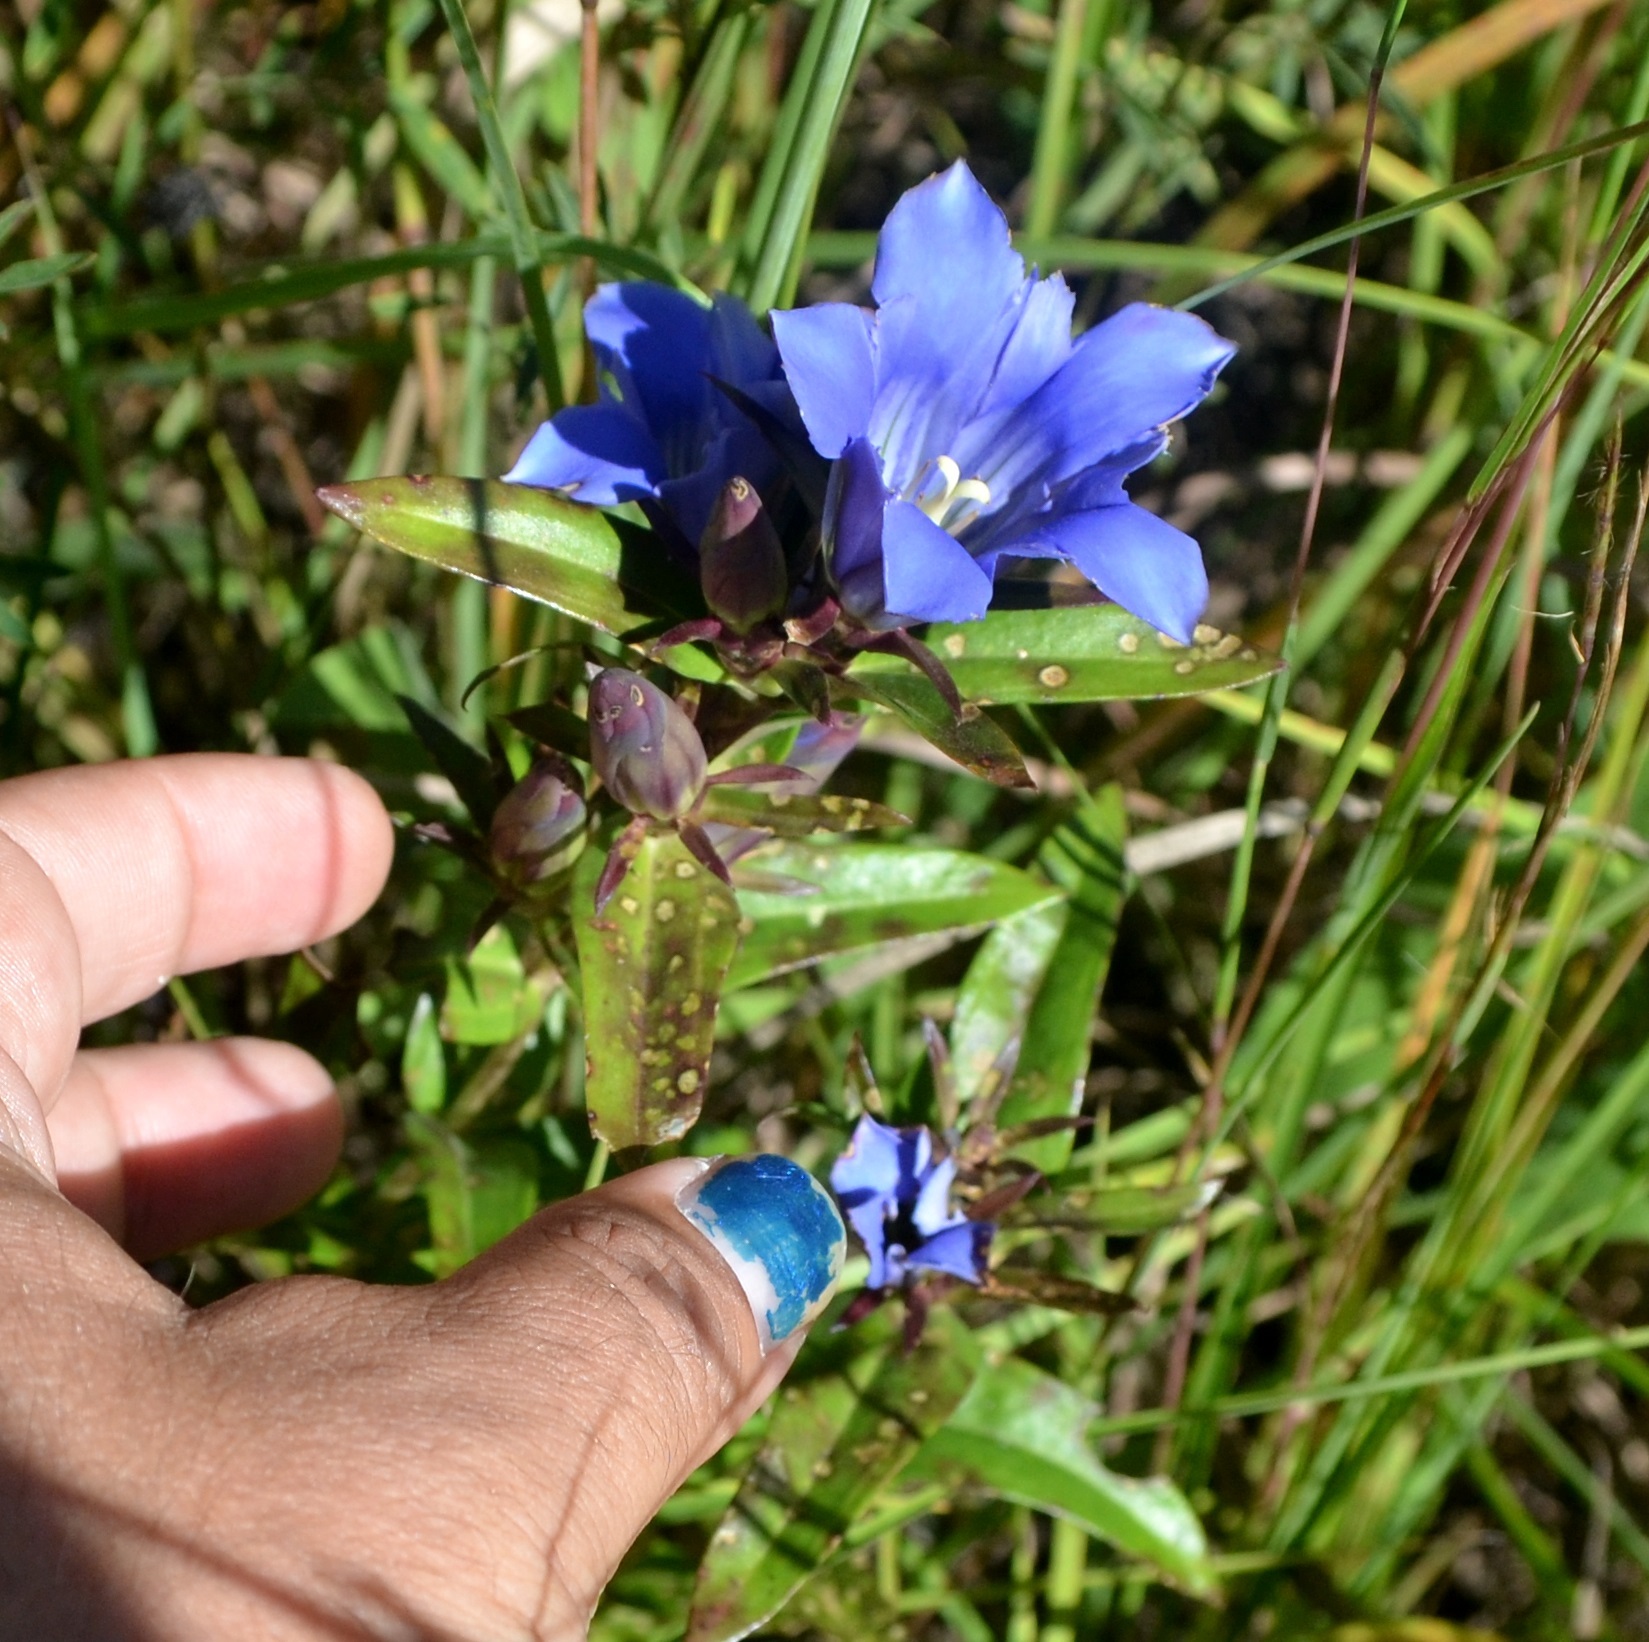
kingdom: Plantae
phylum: Tracheophyta
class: Magnoliopsida
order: Gentianales
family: Gentianaceae
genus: Gentiana
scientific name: Gentiana puberulenta
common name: Downy gentian
